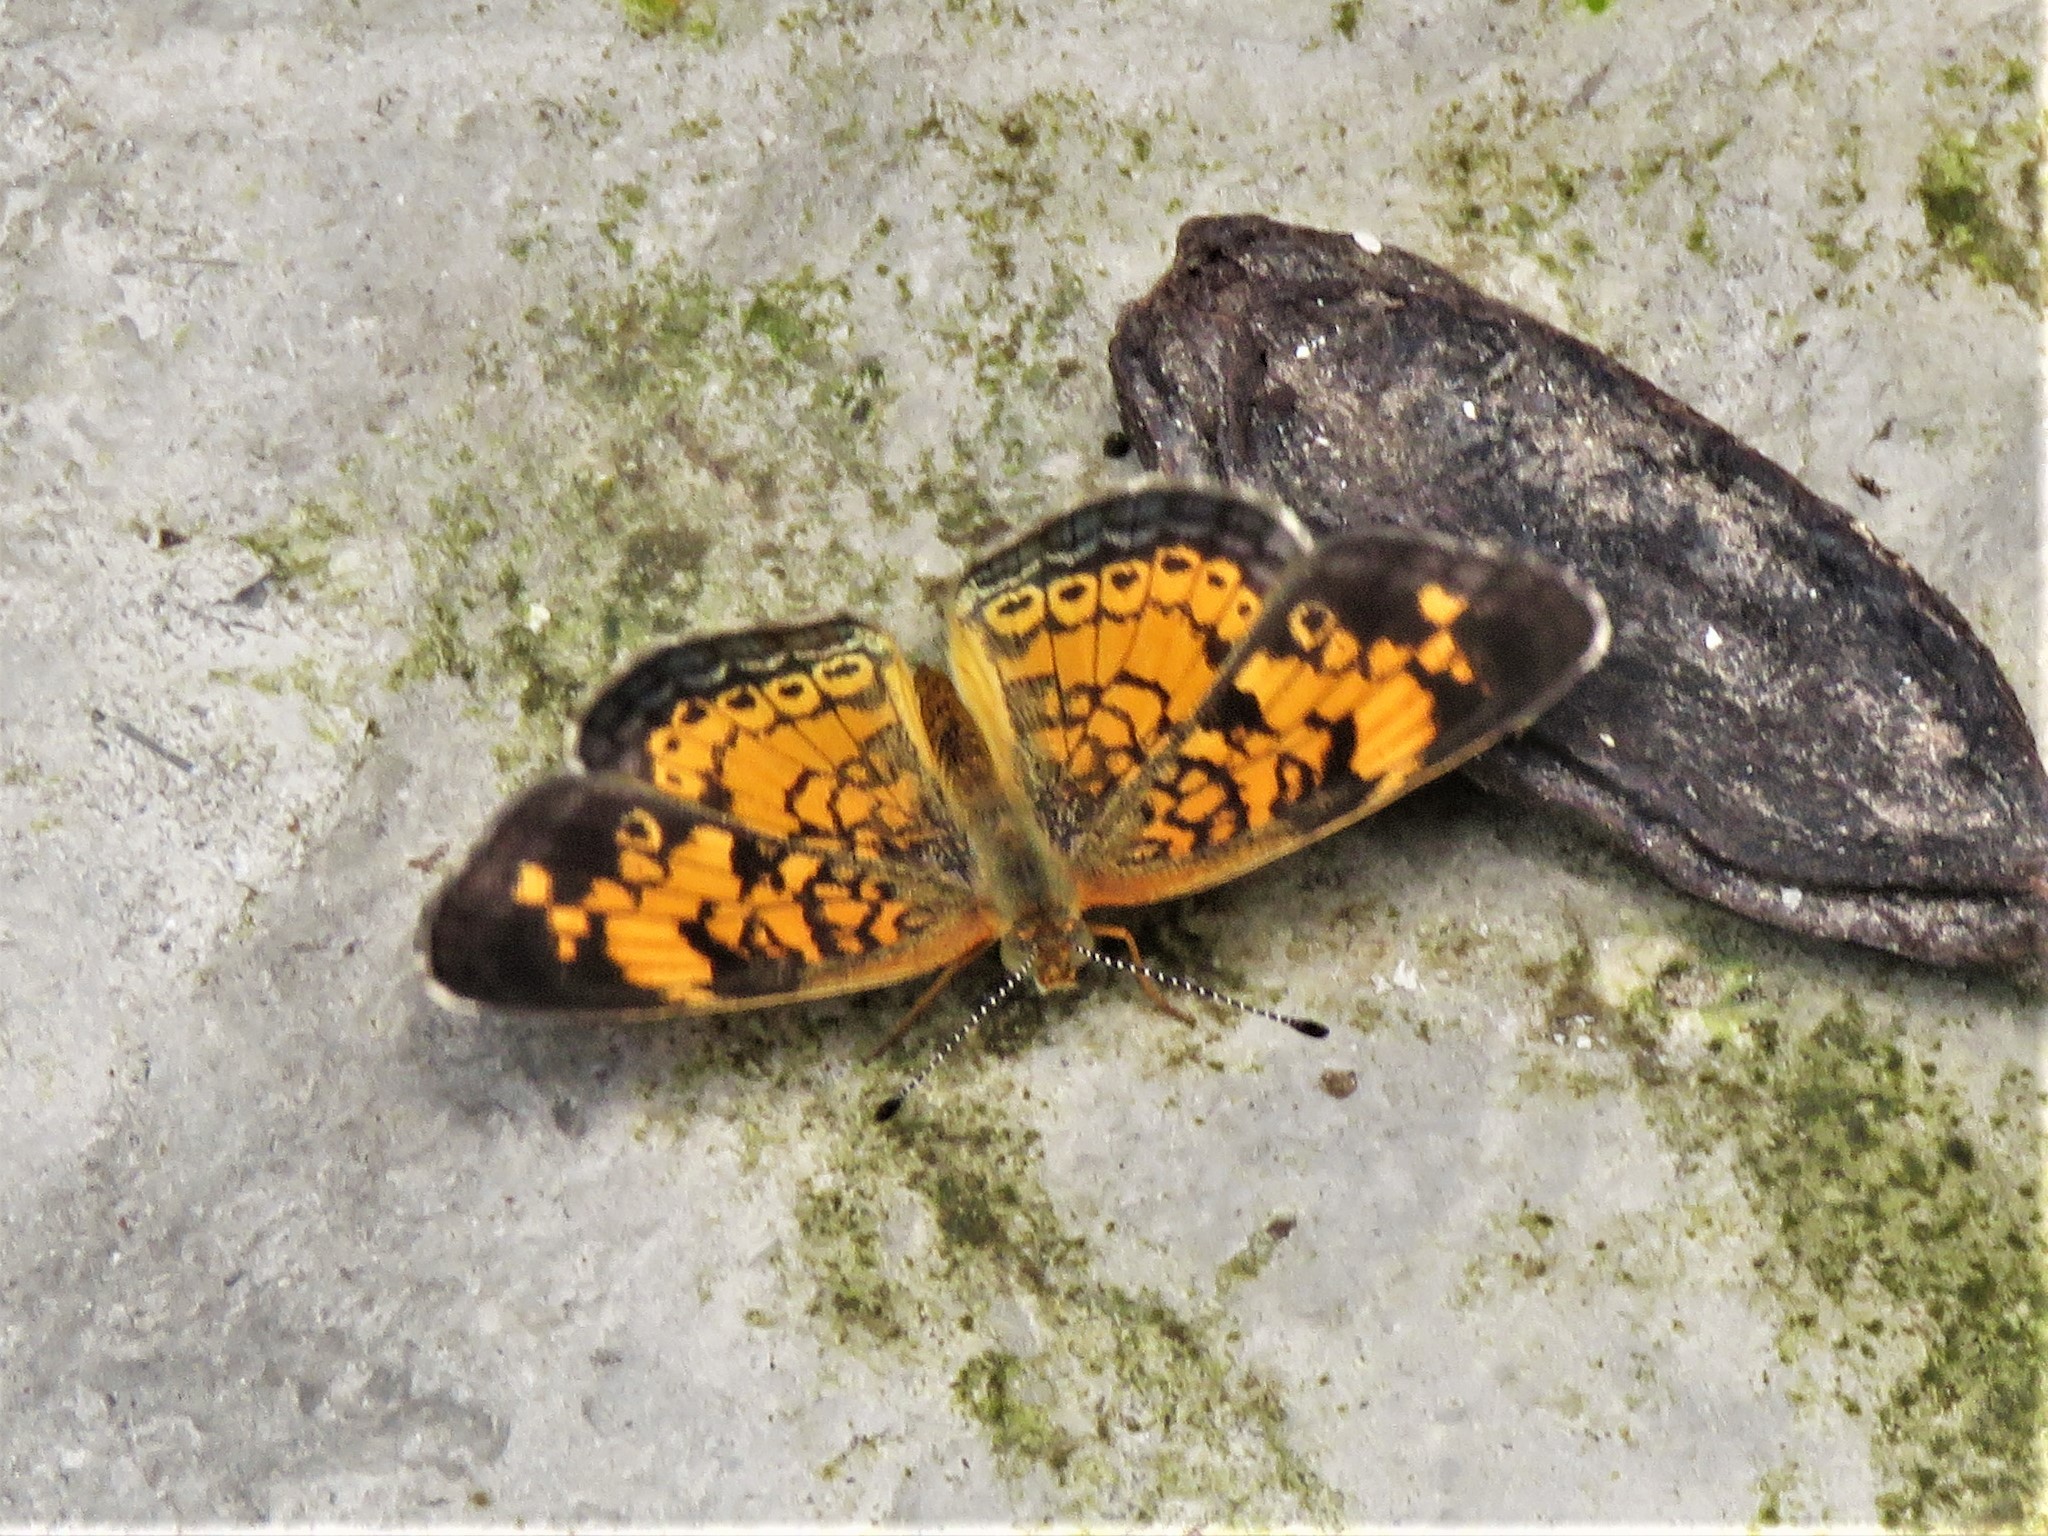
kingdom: Animalia
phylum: Arthropoda
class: Insecta
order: Lepidoptera
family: Nymphalidae
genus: Phyciodes
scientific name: Phyciodes tharos
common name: Pearl crescent
